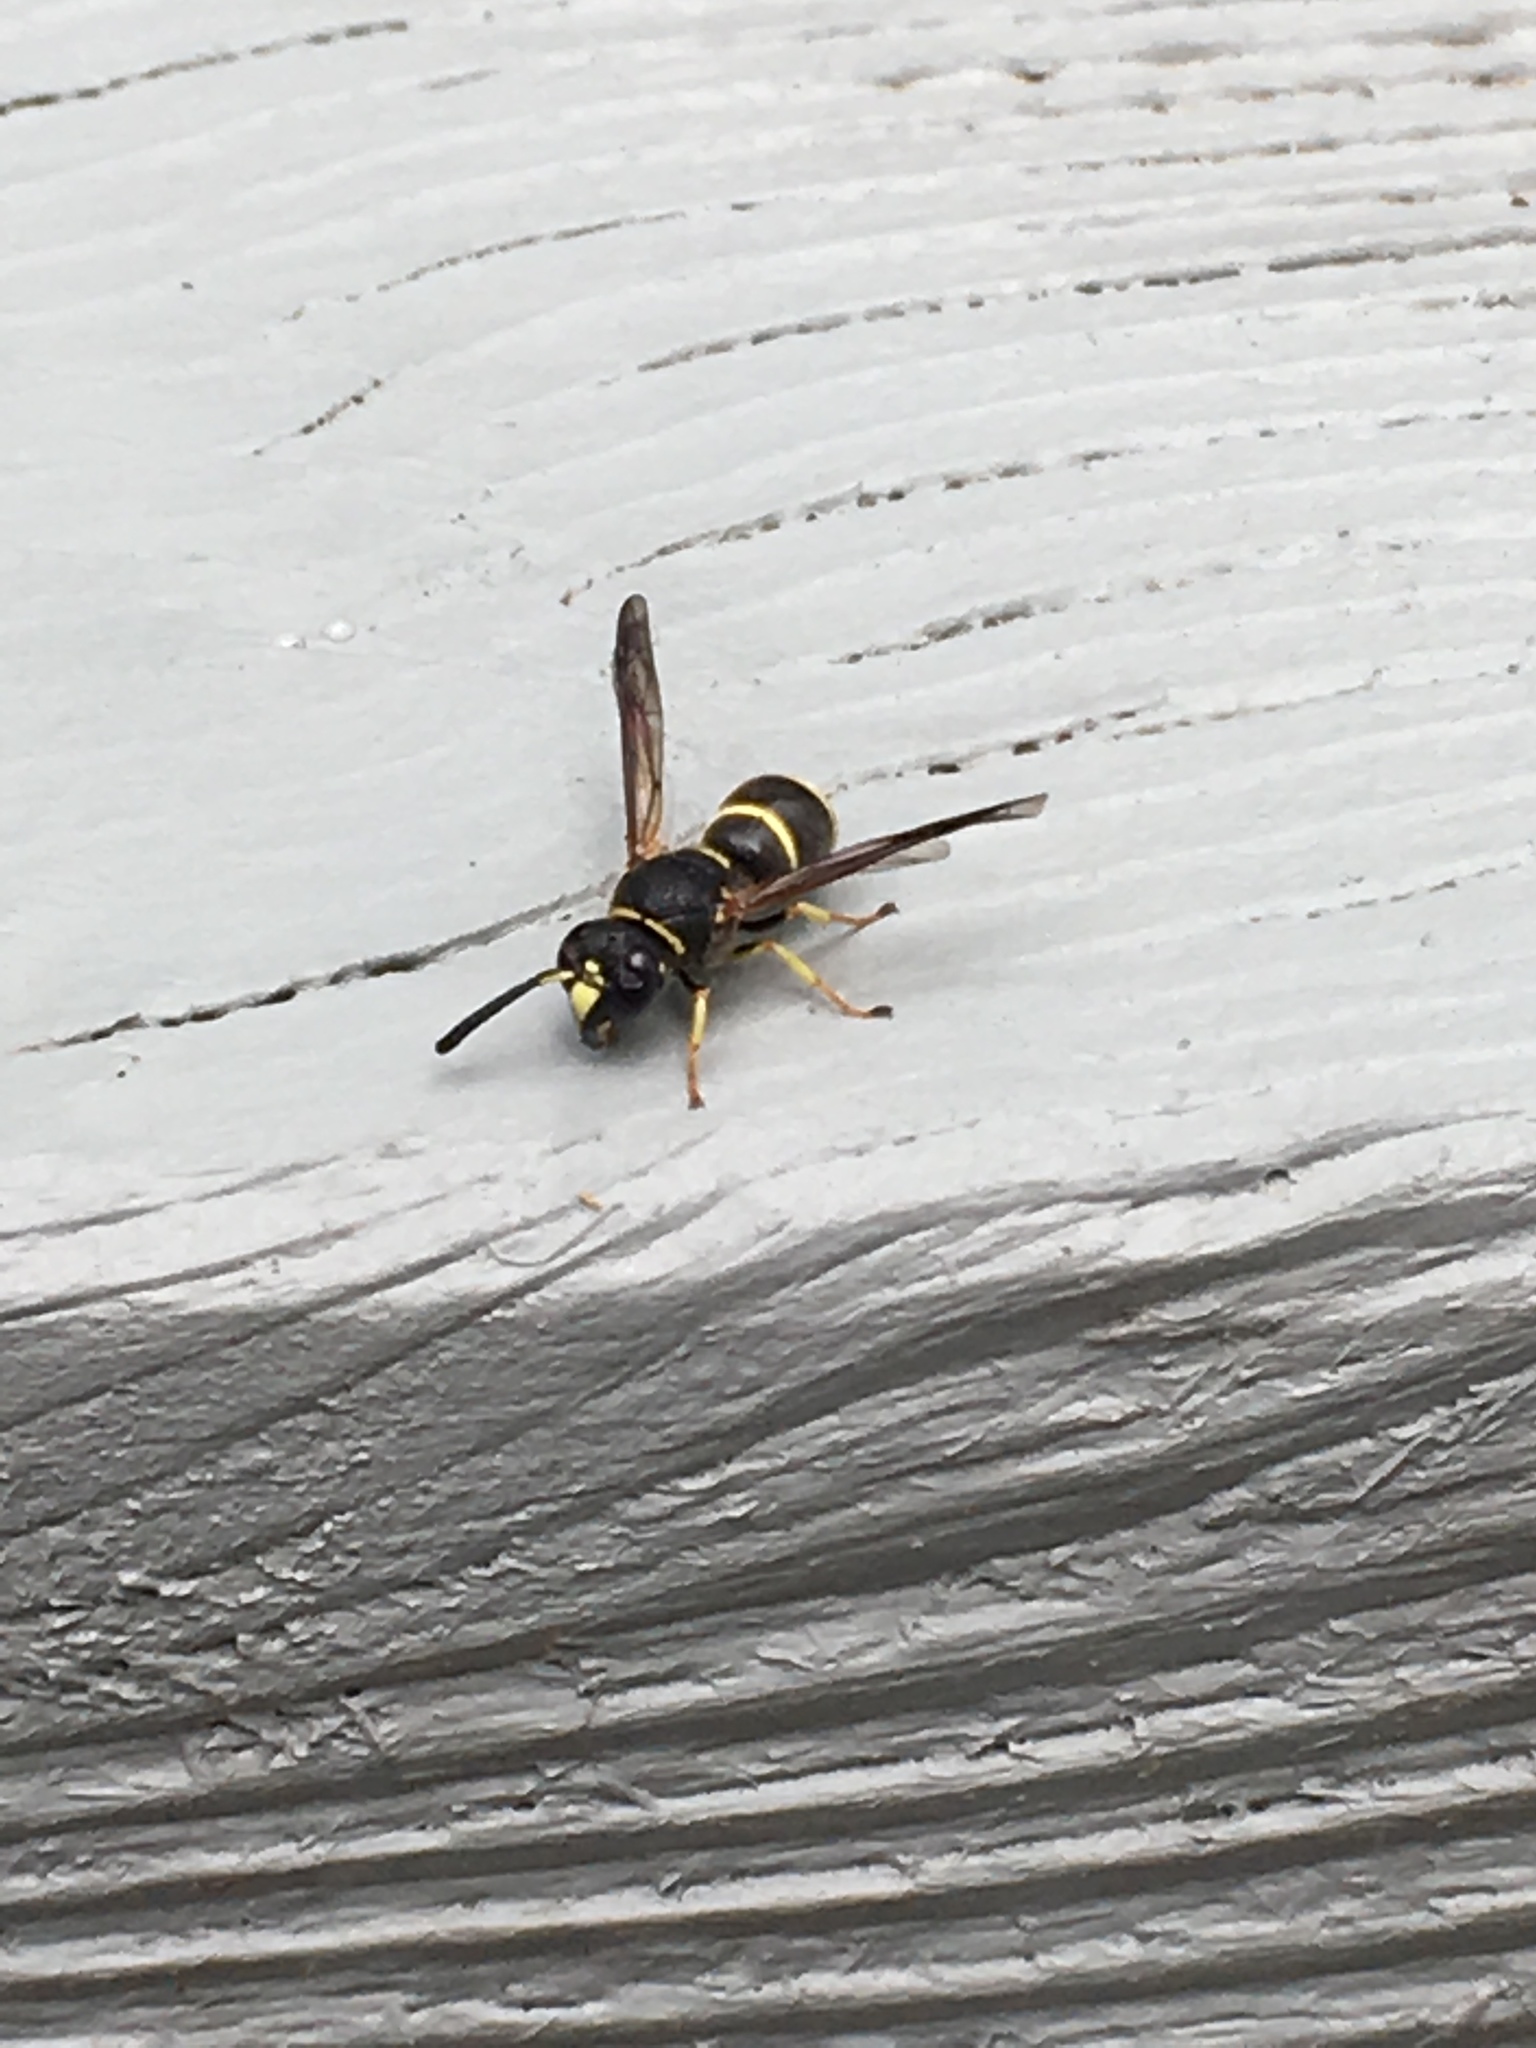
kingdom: Animalia
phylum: Arthropoda
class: Insecta
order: Hymenoptera
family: Eumenidae
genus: Euodynerus
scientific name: Euodynerus foraminatus
